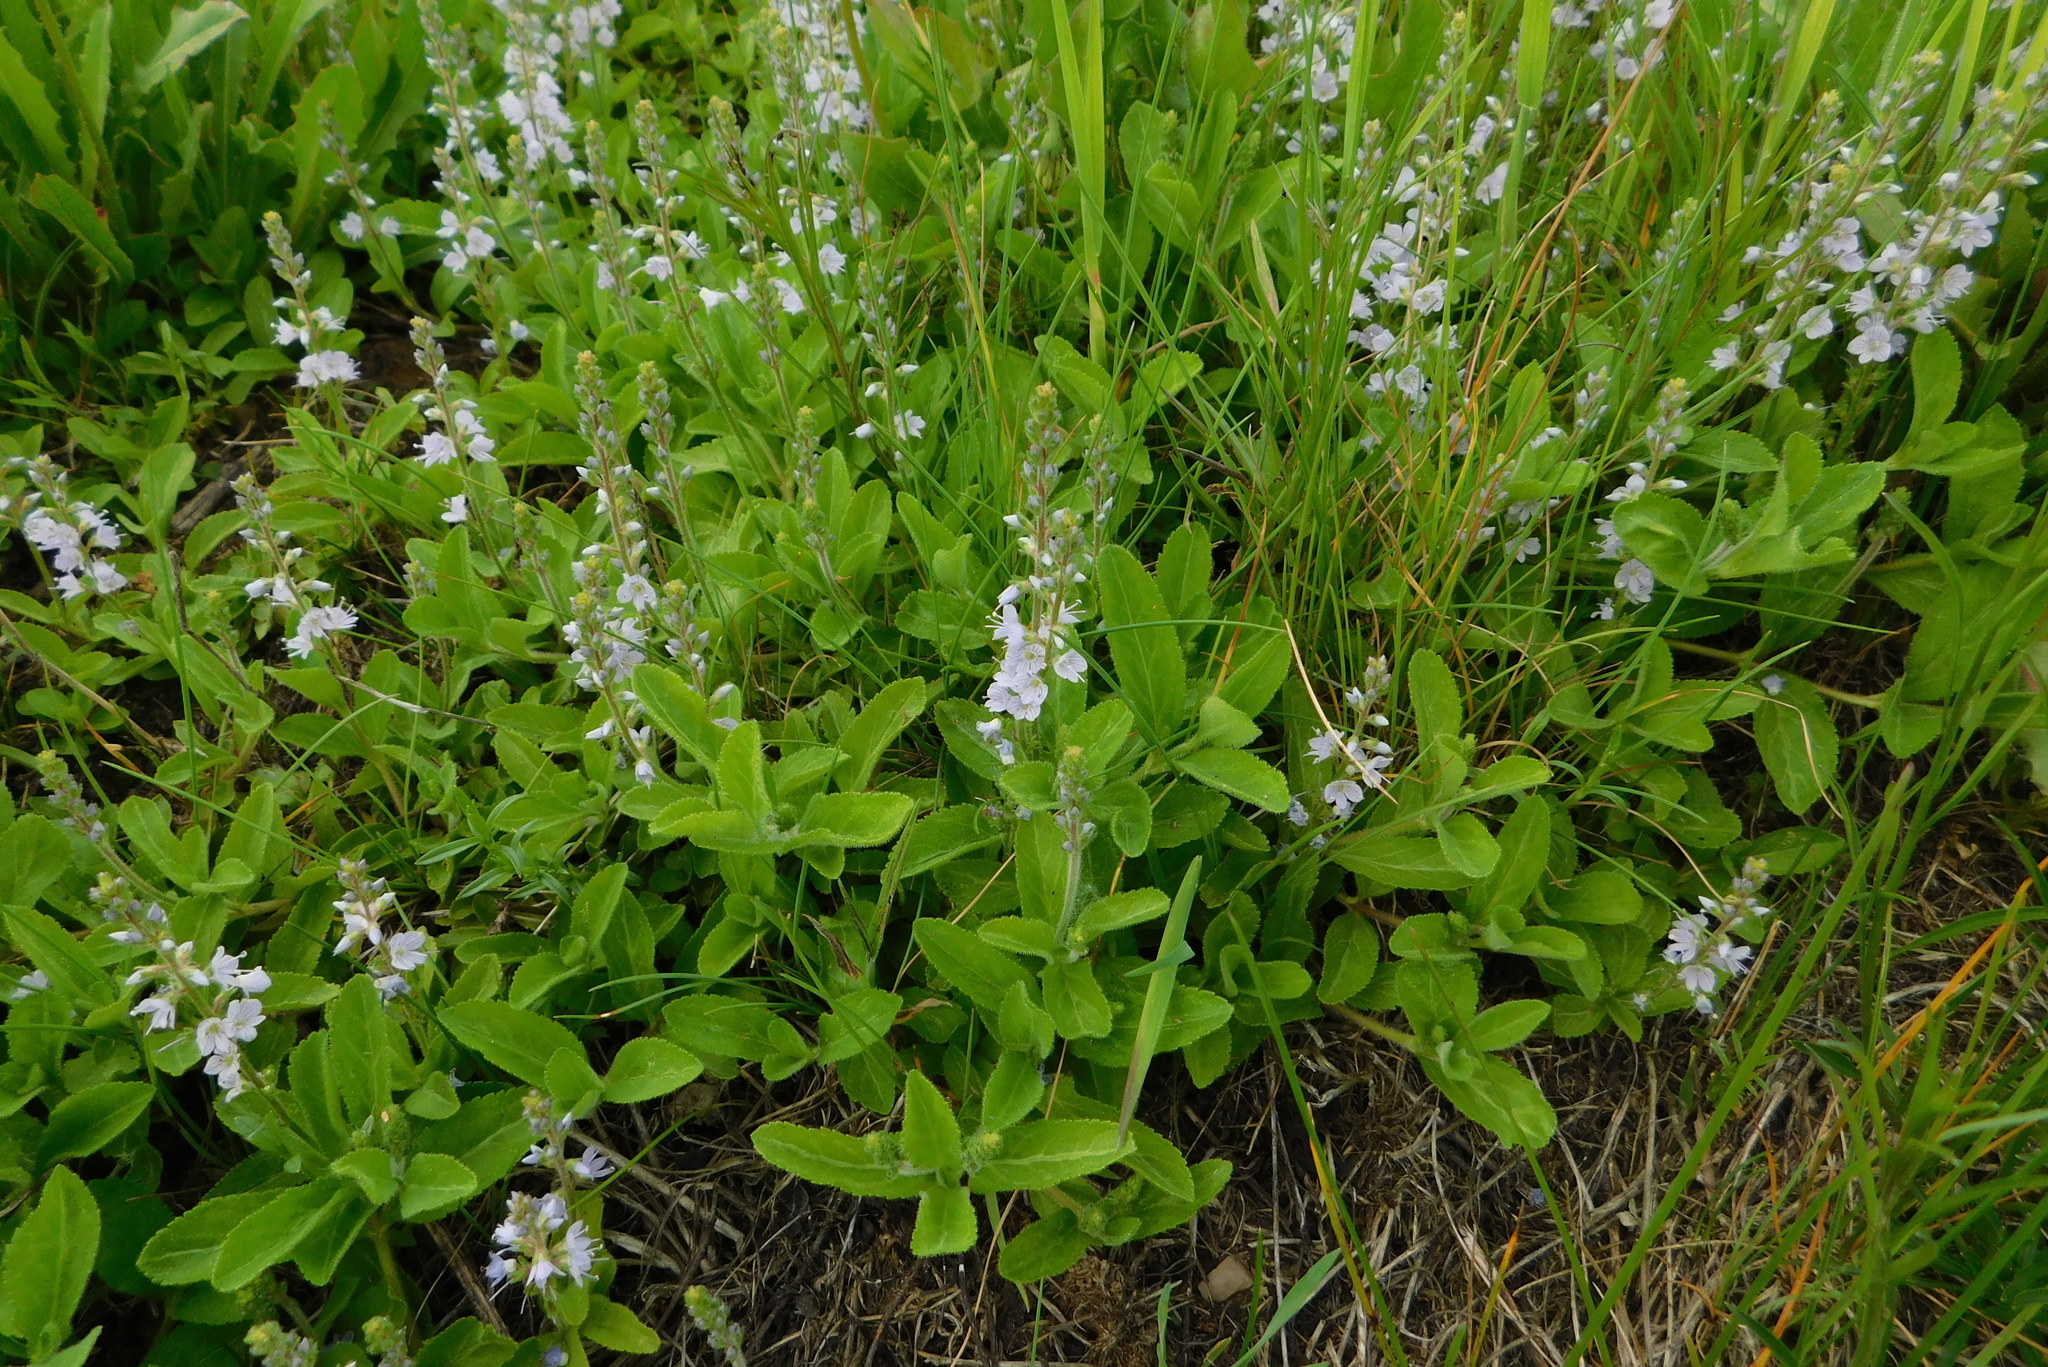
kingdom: Plantae
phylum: Tracheophyta
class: Magnoliopsida
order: Lamiales
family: Plantaginaceae
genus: Veronica
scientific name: Veronica officinalis
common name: Common speedwell
